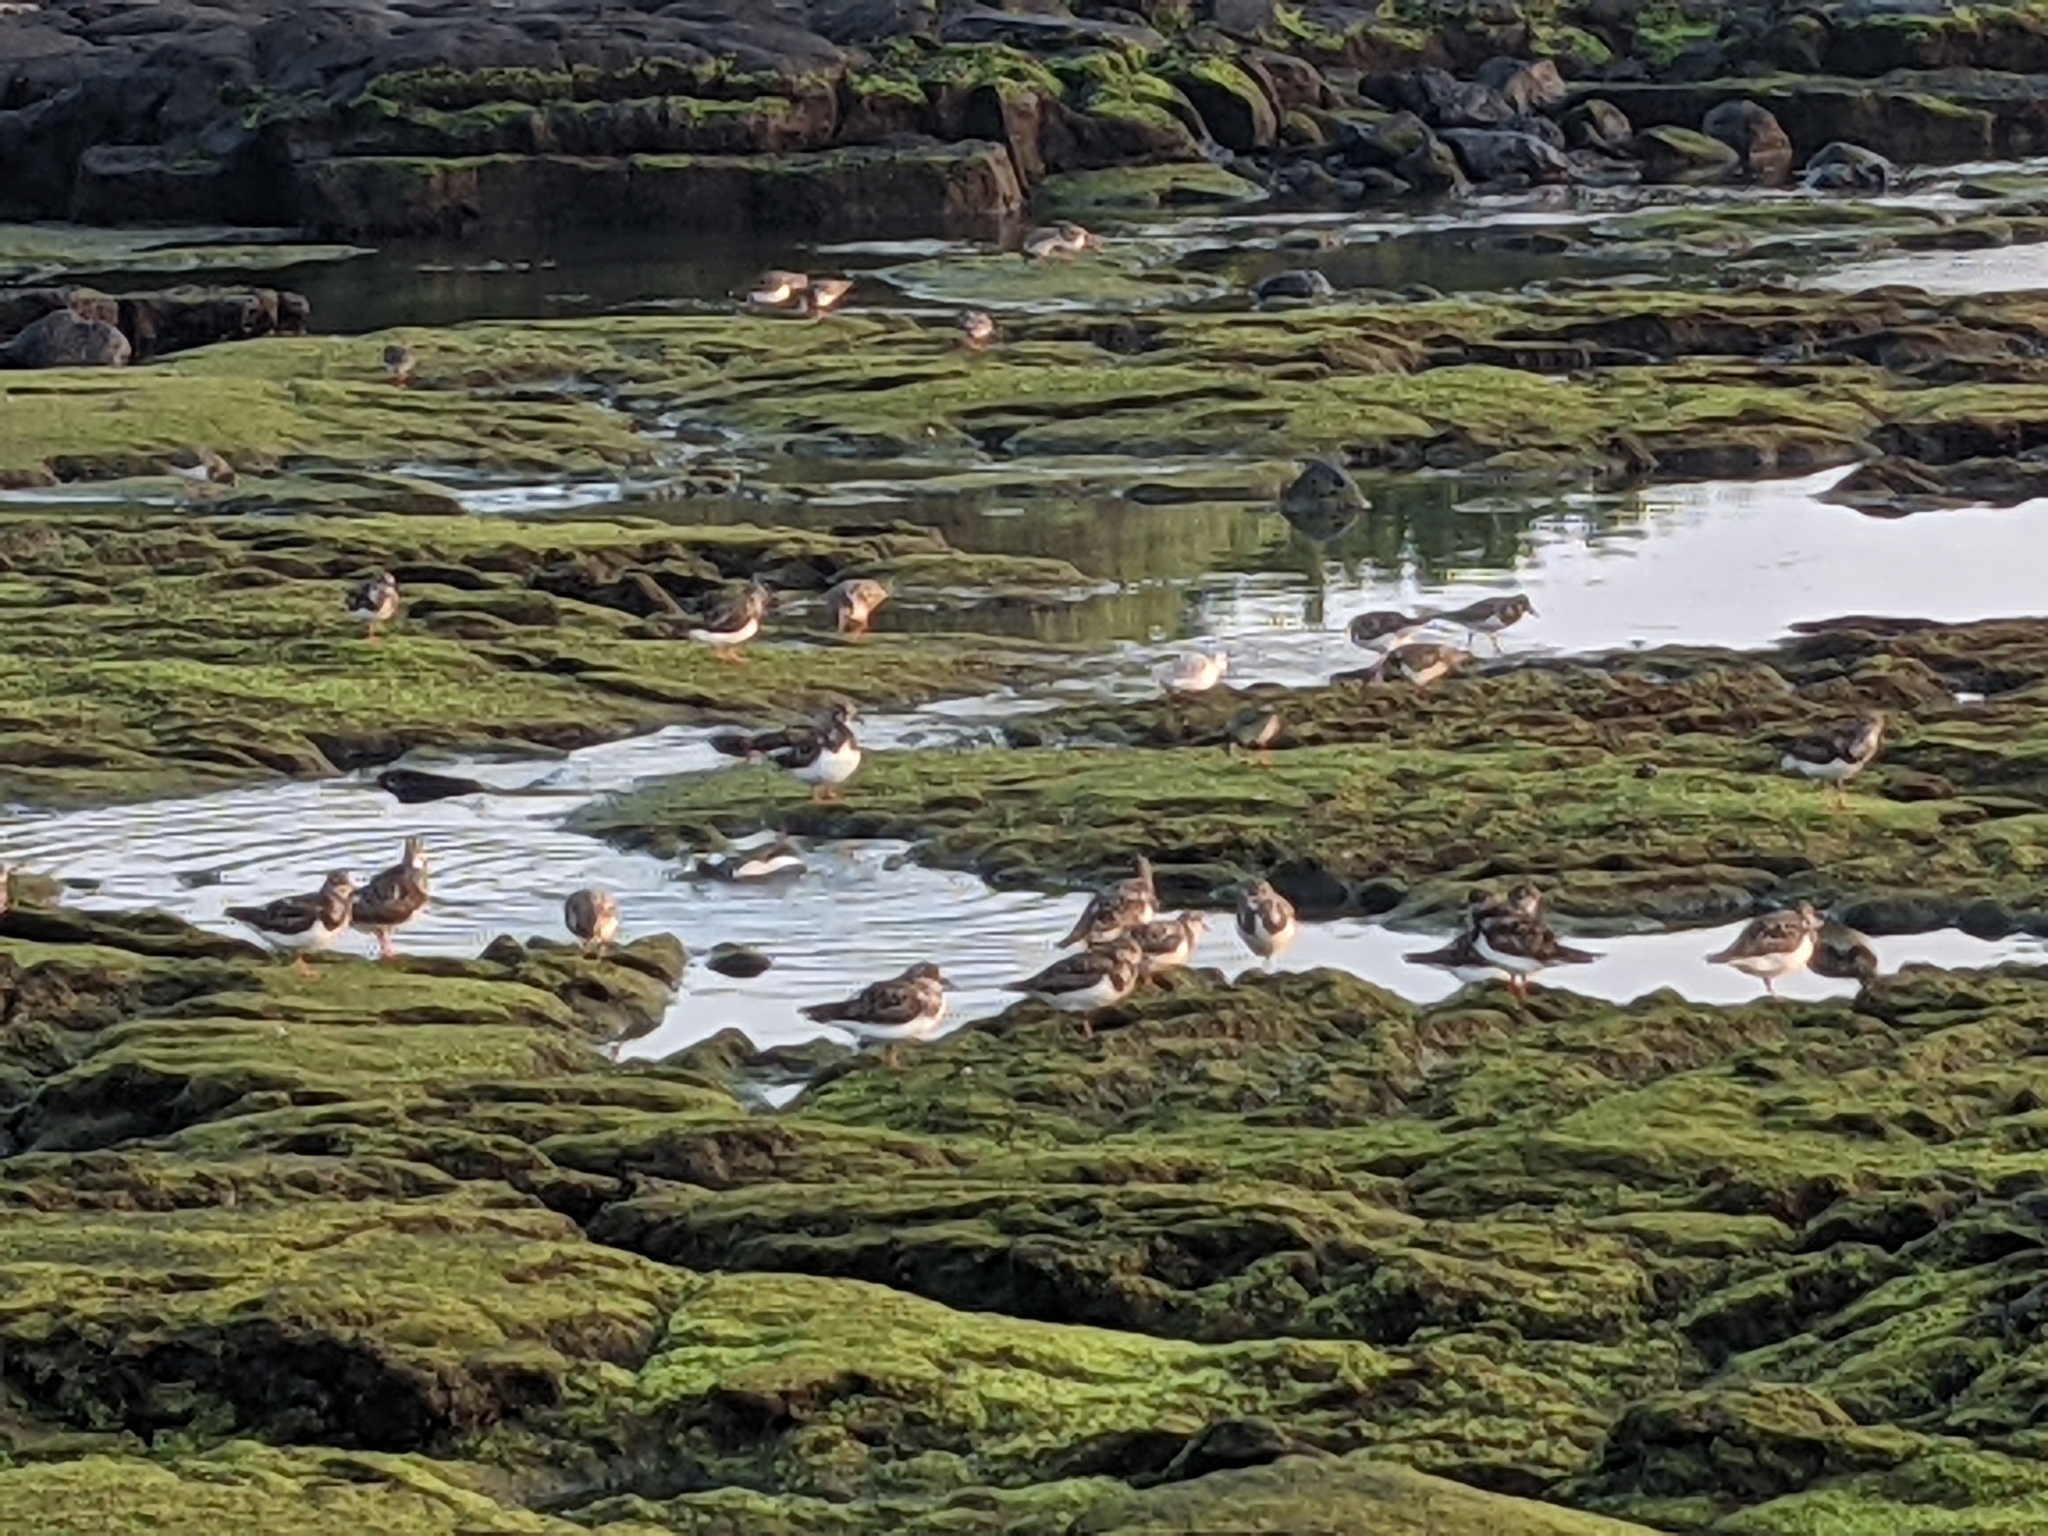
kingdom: Animalia
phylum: Chordata
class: Aves
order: Charadriiformes
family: Scolopacidae
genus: Arenaria
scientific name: Arenaria interpres
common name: Ruddy turnstone
